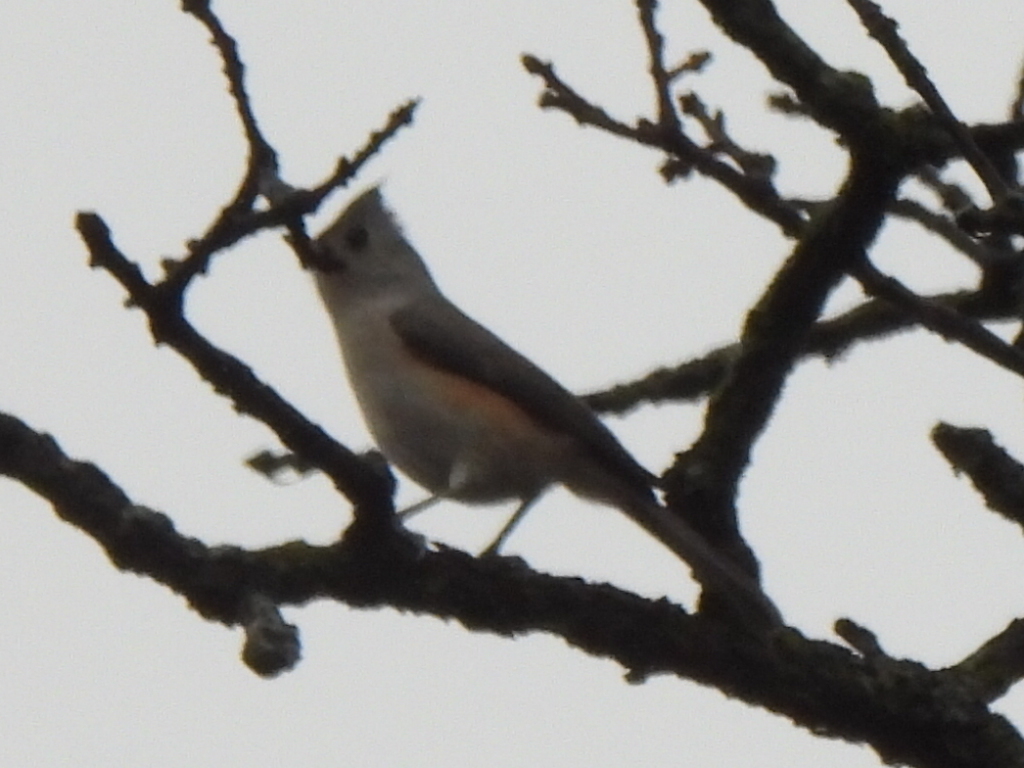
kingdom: Animalia
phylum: Chordata
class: Aves
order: Passeriformes
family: Paridae
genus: Baeolophus
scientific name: Baeolophus bicolor
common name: Tufted titmouse
